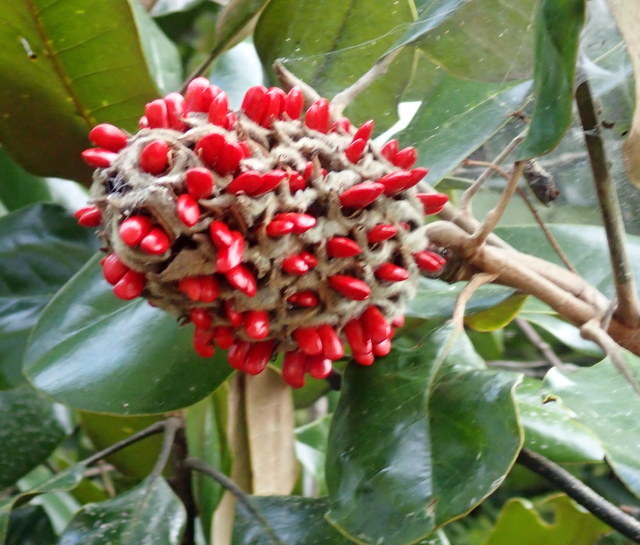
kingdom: Plantae
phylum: Tracheophyta
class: Magnoliopsida
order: Magnoliales
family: Magnoliaceae
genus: Magnolia
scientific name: Magnolia grandiflora
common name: Southern magnolia
